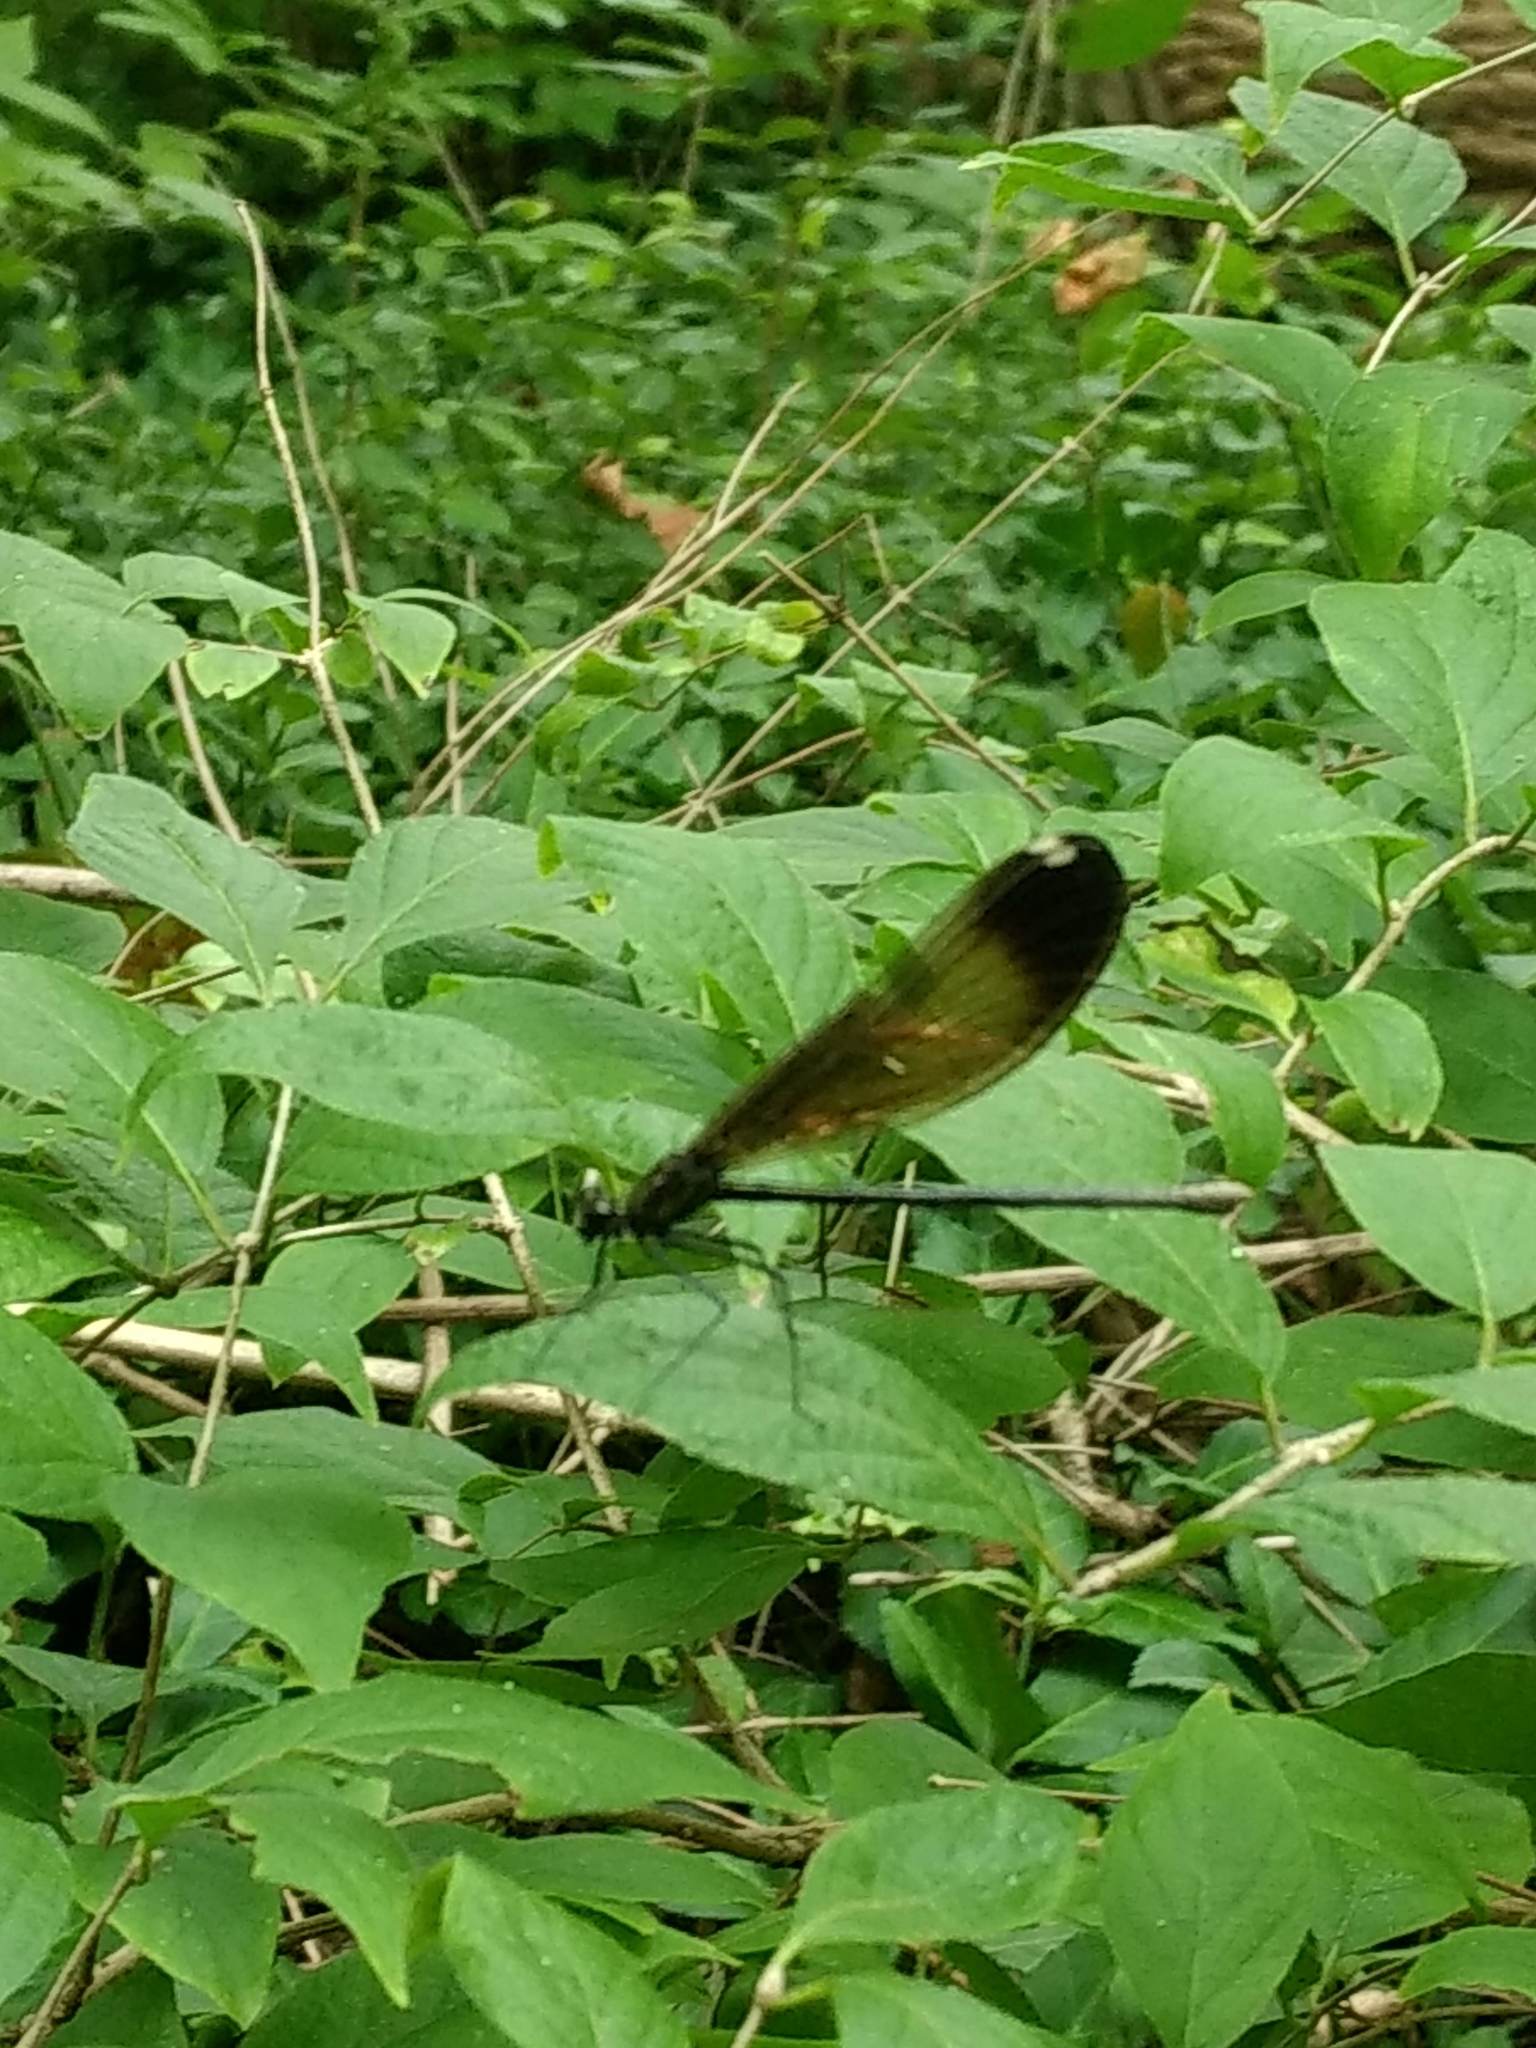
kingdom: Animalia
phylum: Arthropoda
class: Insecta
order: Odonata
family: Calopterygidae
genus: Calopteryx
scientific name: Calopteryx maculata
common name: Ebony jewelwing
